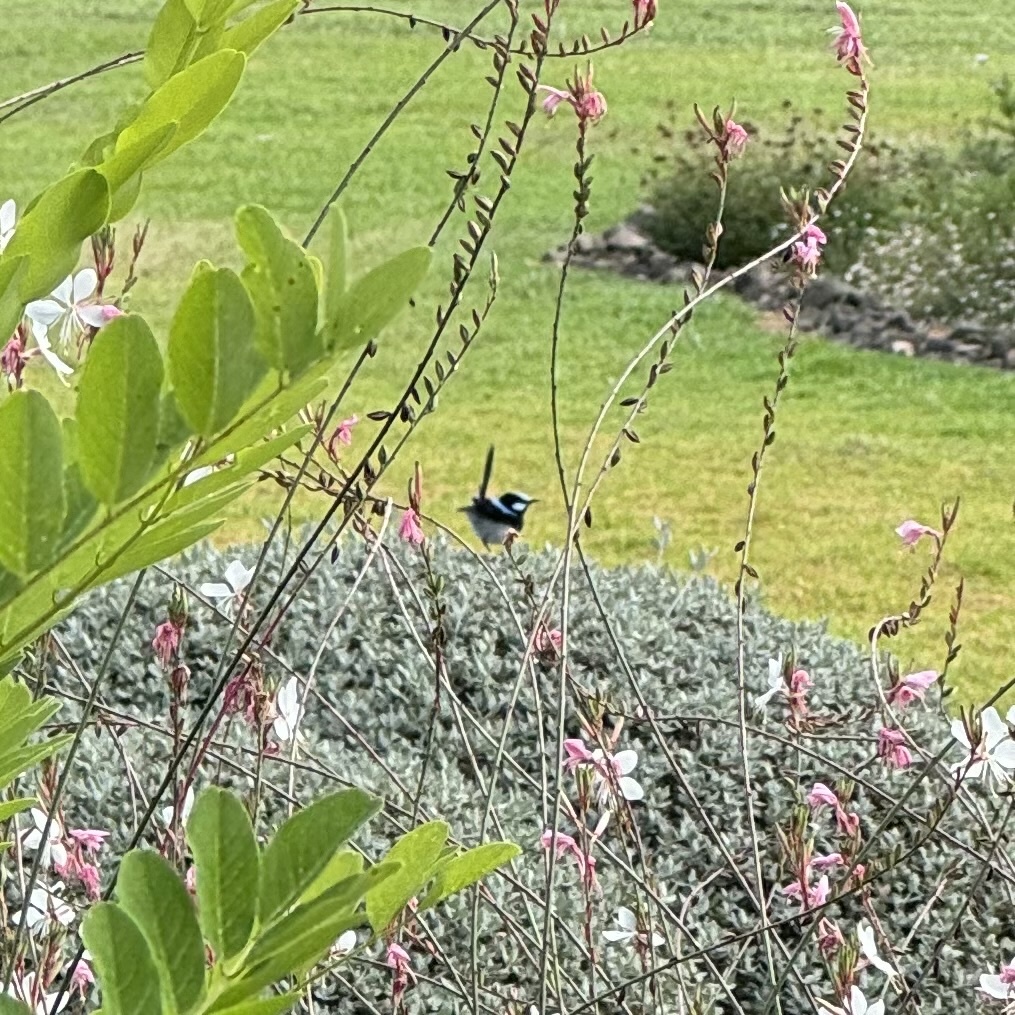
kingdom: Animalia
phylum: Chordata
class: Aves
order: Passeriformes
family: Maluridae
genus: Malurus
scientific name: Malurus cyaneus
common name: Superb fairywren
